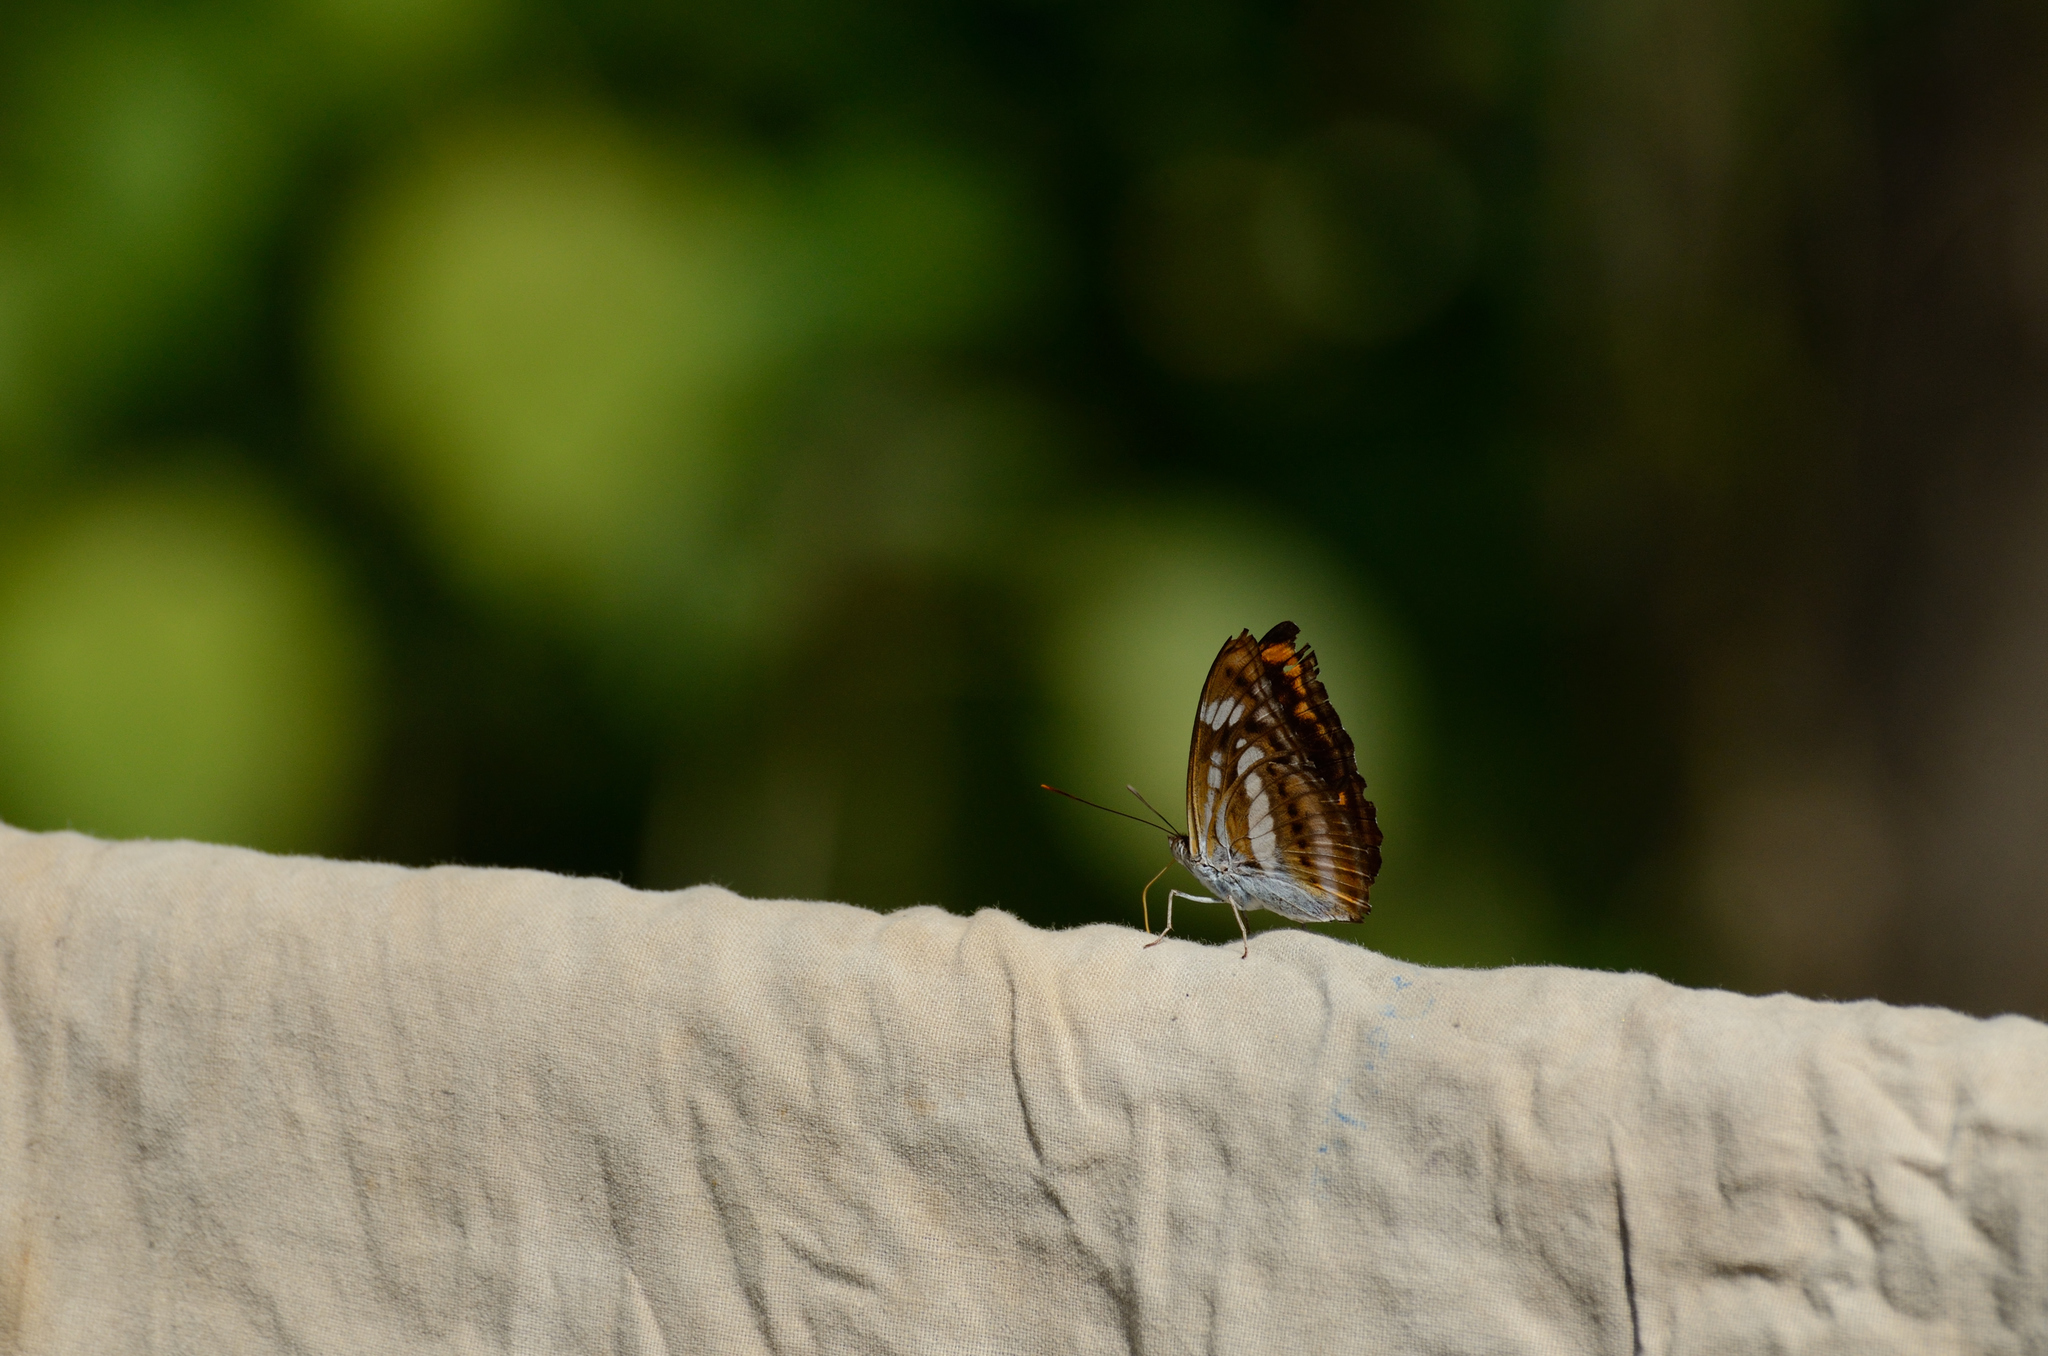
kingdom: Animalia
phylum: Arthropoda
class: Insecta
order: Lepidoptera
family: Nymphalidae
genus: Parathyma
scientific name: Parathyma nefte
